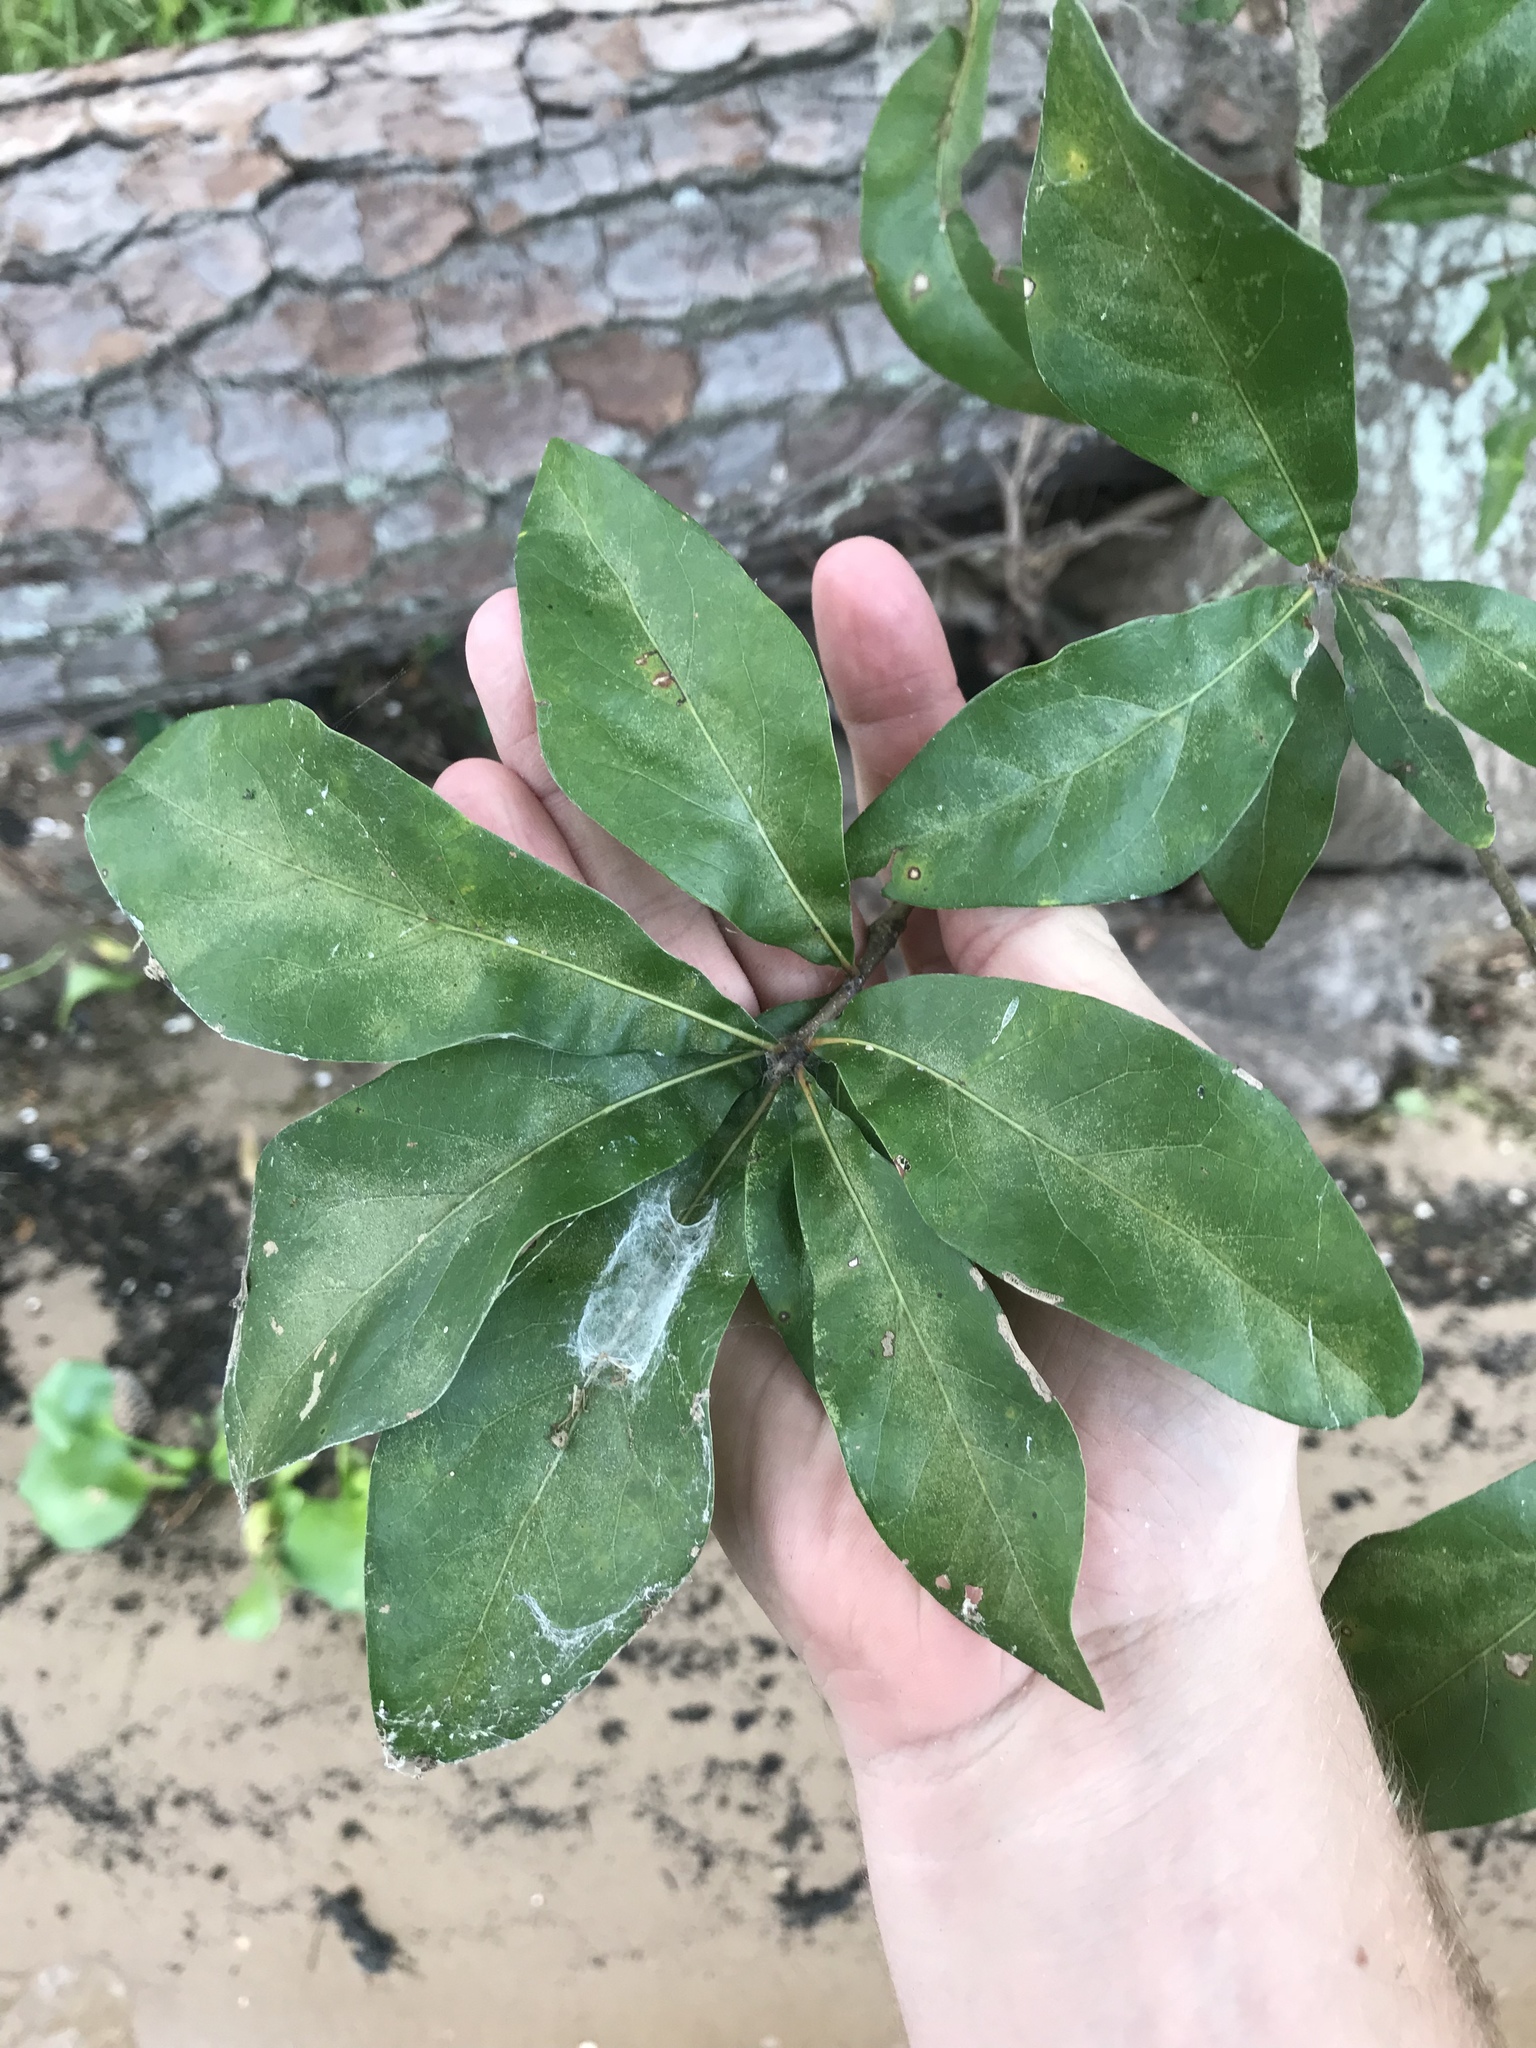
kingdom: Plantae
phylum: Tracheophyta
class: Magnoliopsida
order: Fagales
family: Fagaceae
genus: Quercus
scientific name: Quercus nigra
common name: Water oak
